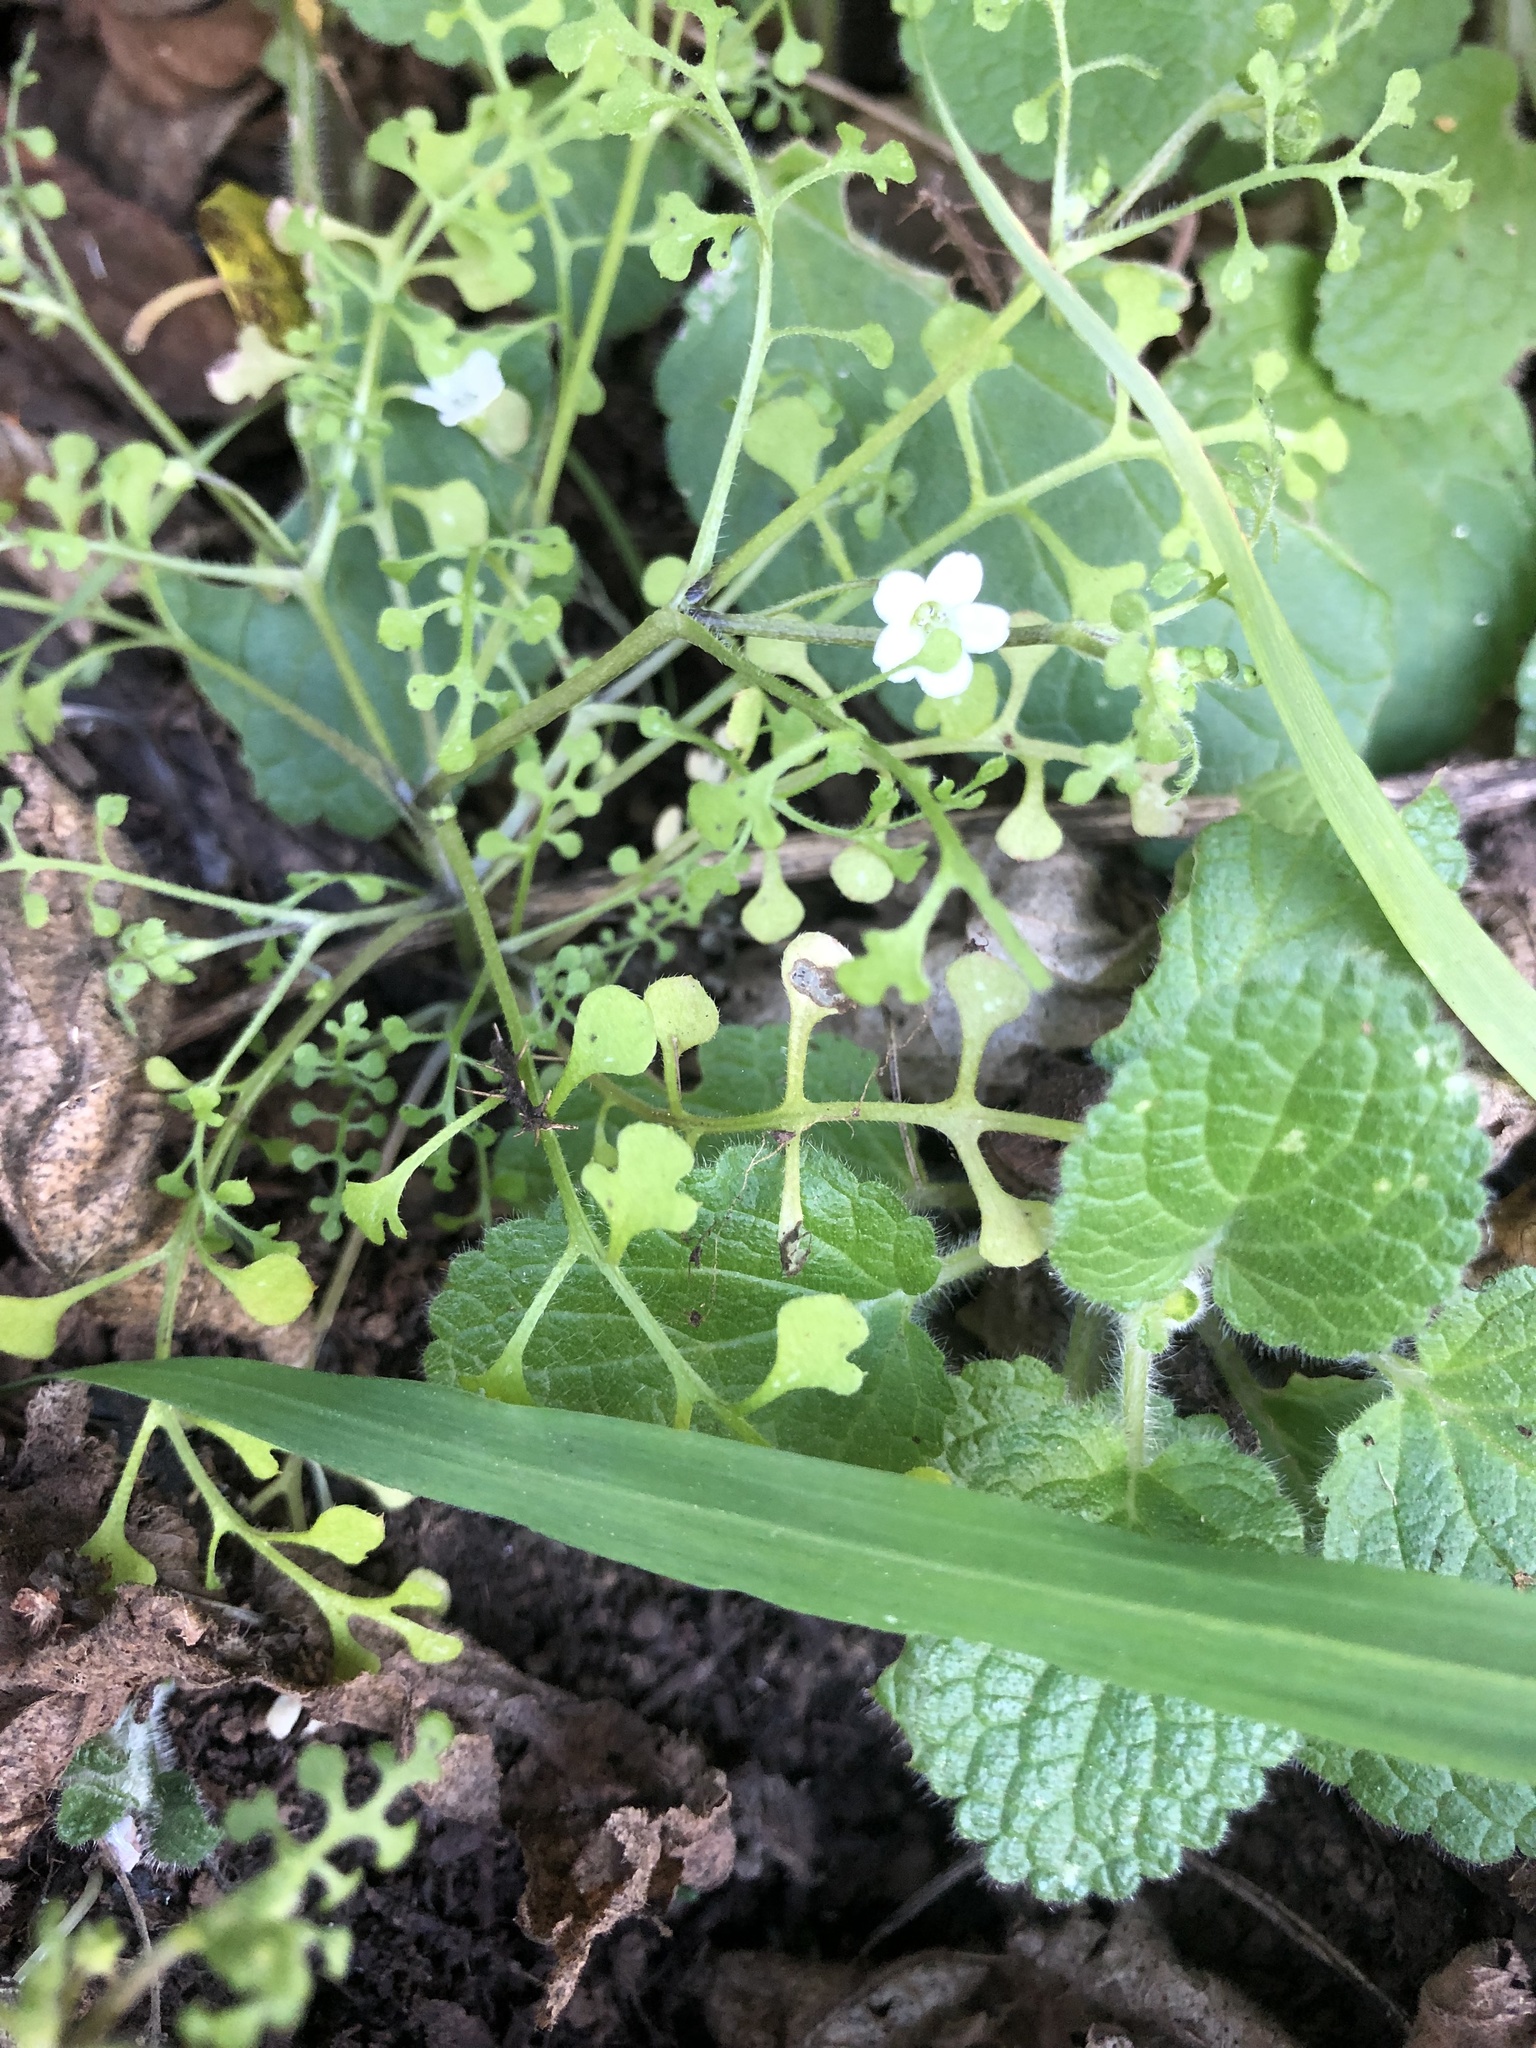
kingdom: Plantae
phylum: Tracheophyta
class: Magnoliopsida
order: Boraginales
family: Hydrophyllaceae
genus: Nemophila
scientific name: Nemophila heterophylla
